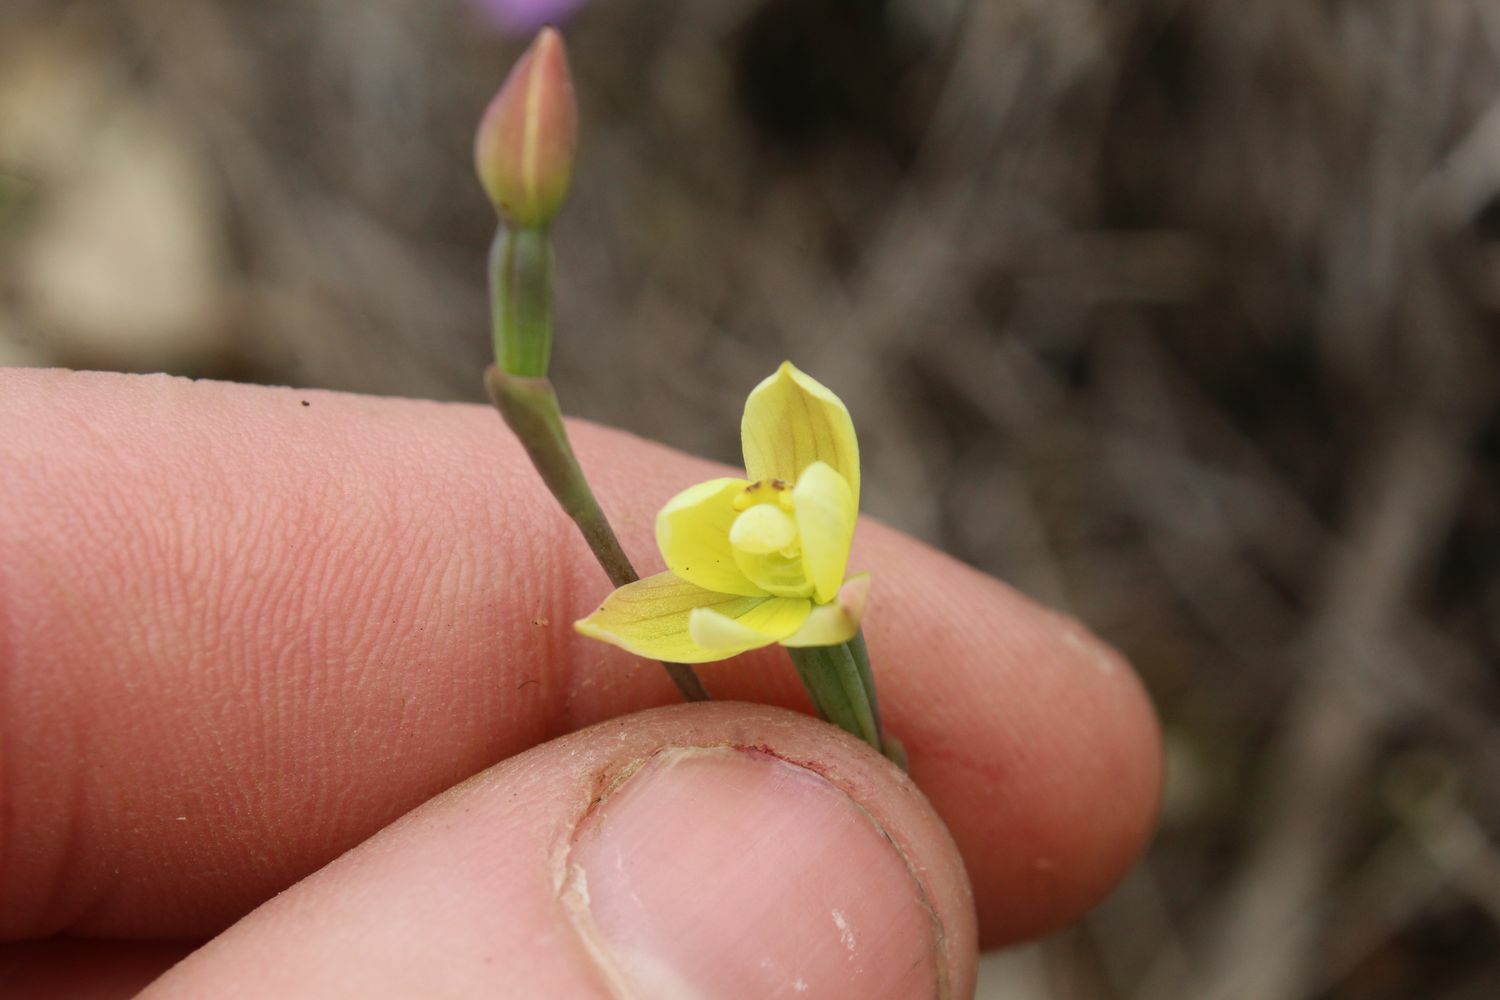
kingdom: Plantae
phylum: Tracheophyta
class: Liliopsida
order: Asparagales
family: Orchidaceae
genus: Thelymitra
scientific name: Thelymitra flexuosa
